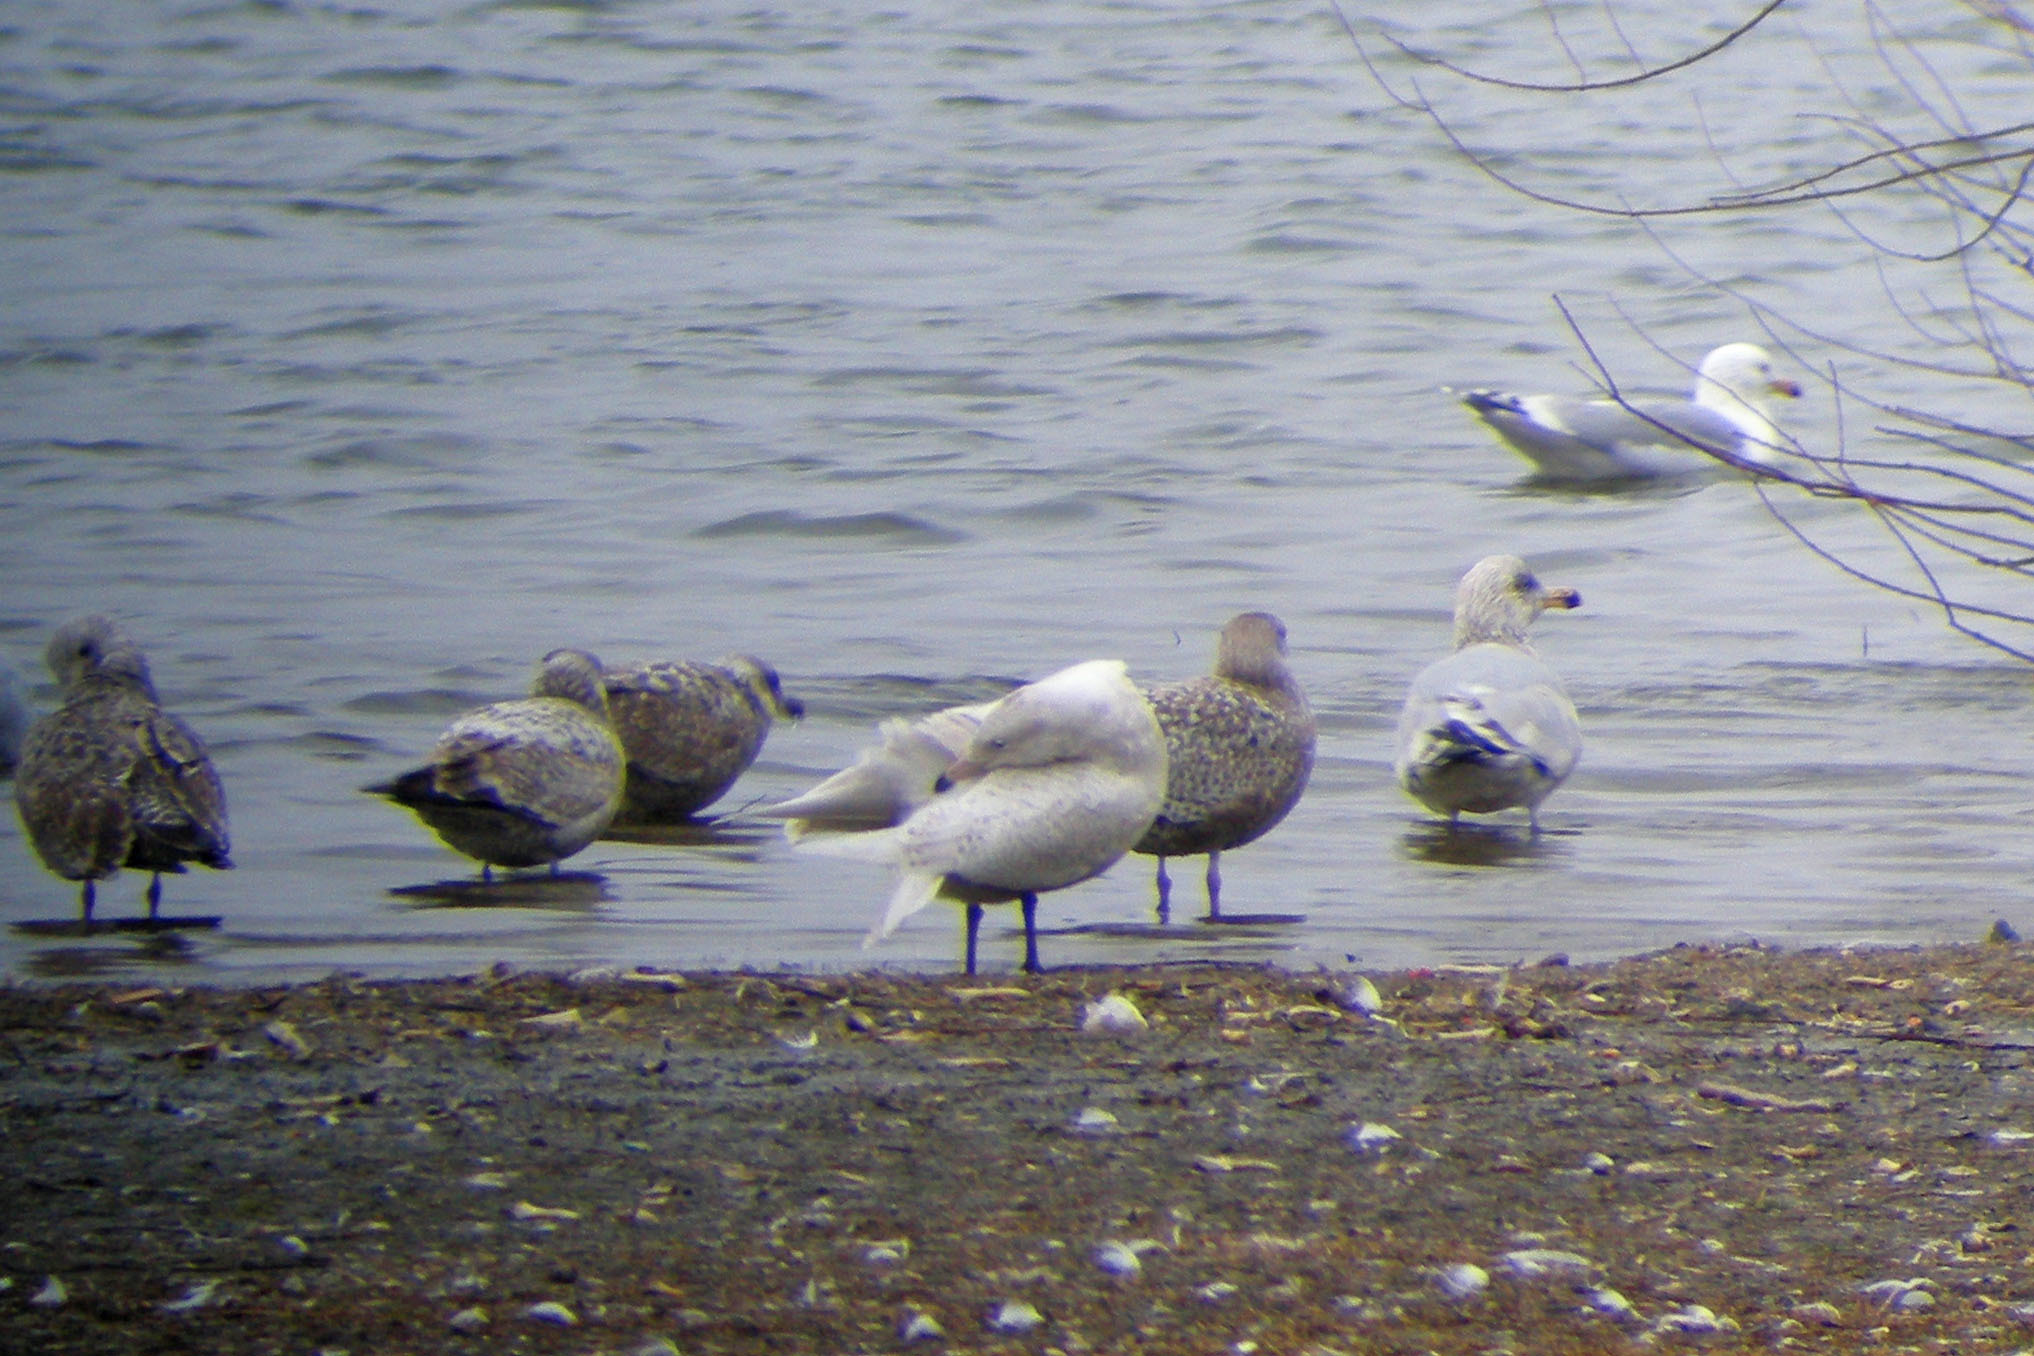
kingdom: Animalia
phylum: Chordata
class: Aves
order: Charadriiformes
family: Laridae
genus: Larus
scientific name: Larus hyperboreus
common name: Glaucous gull
